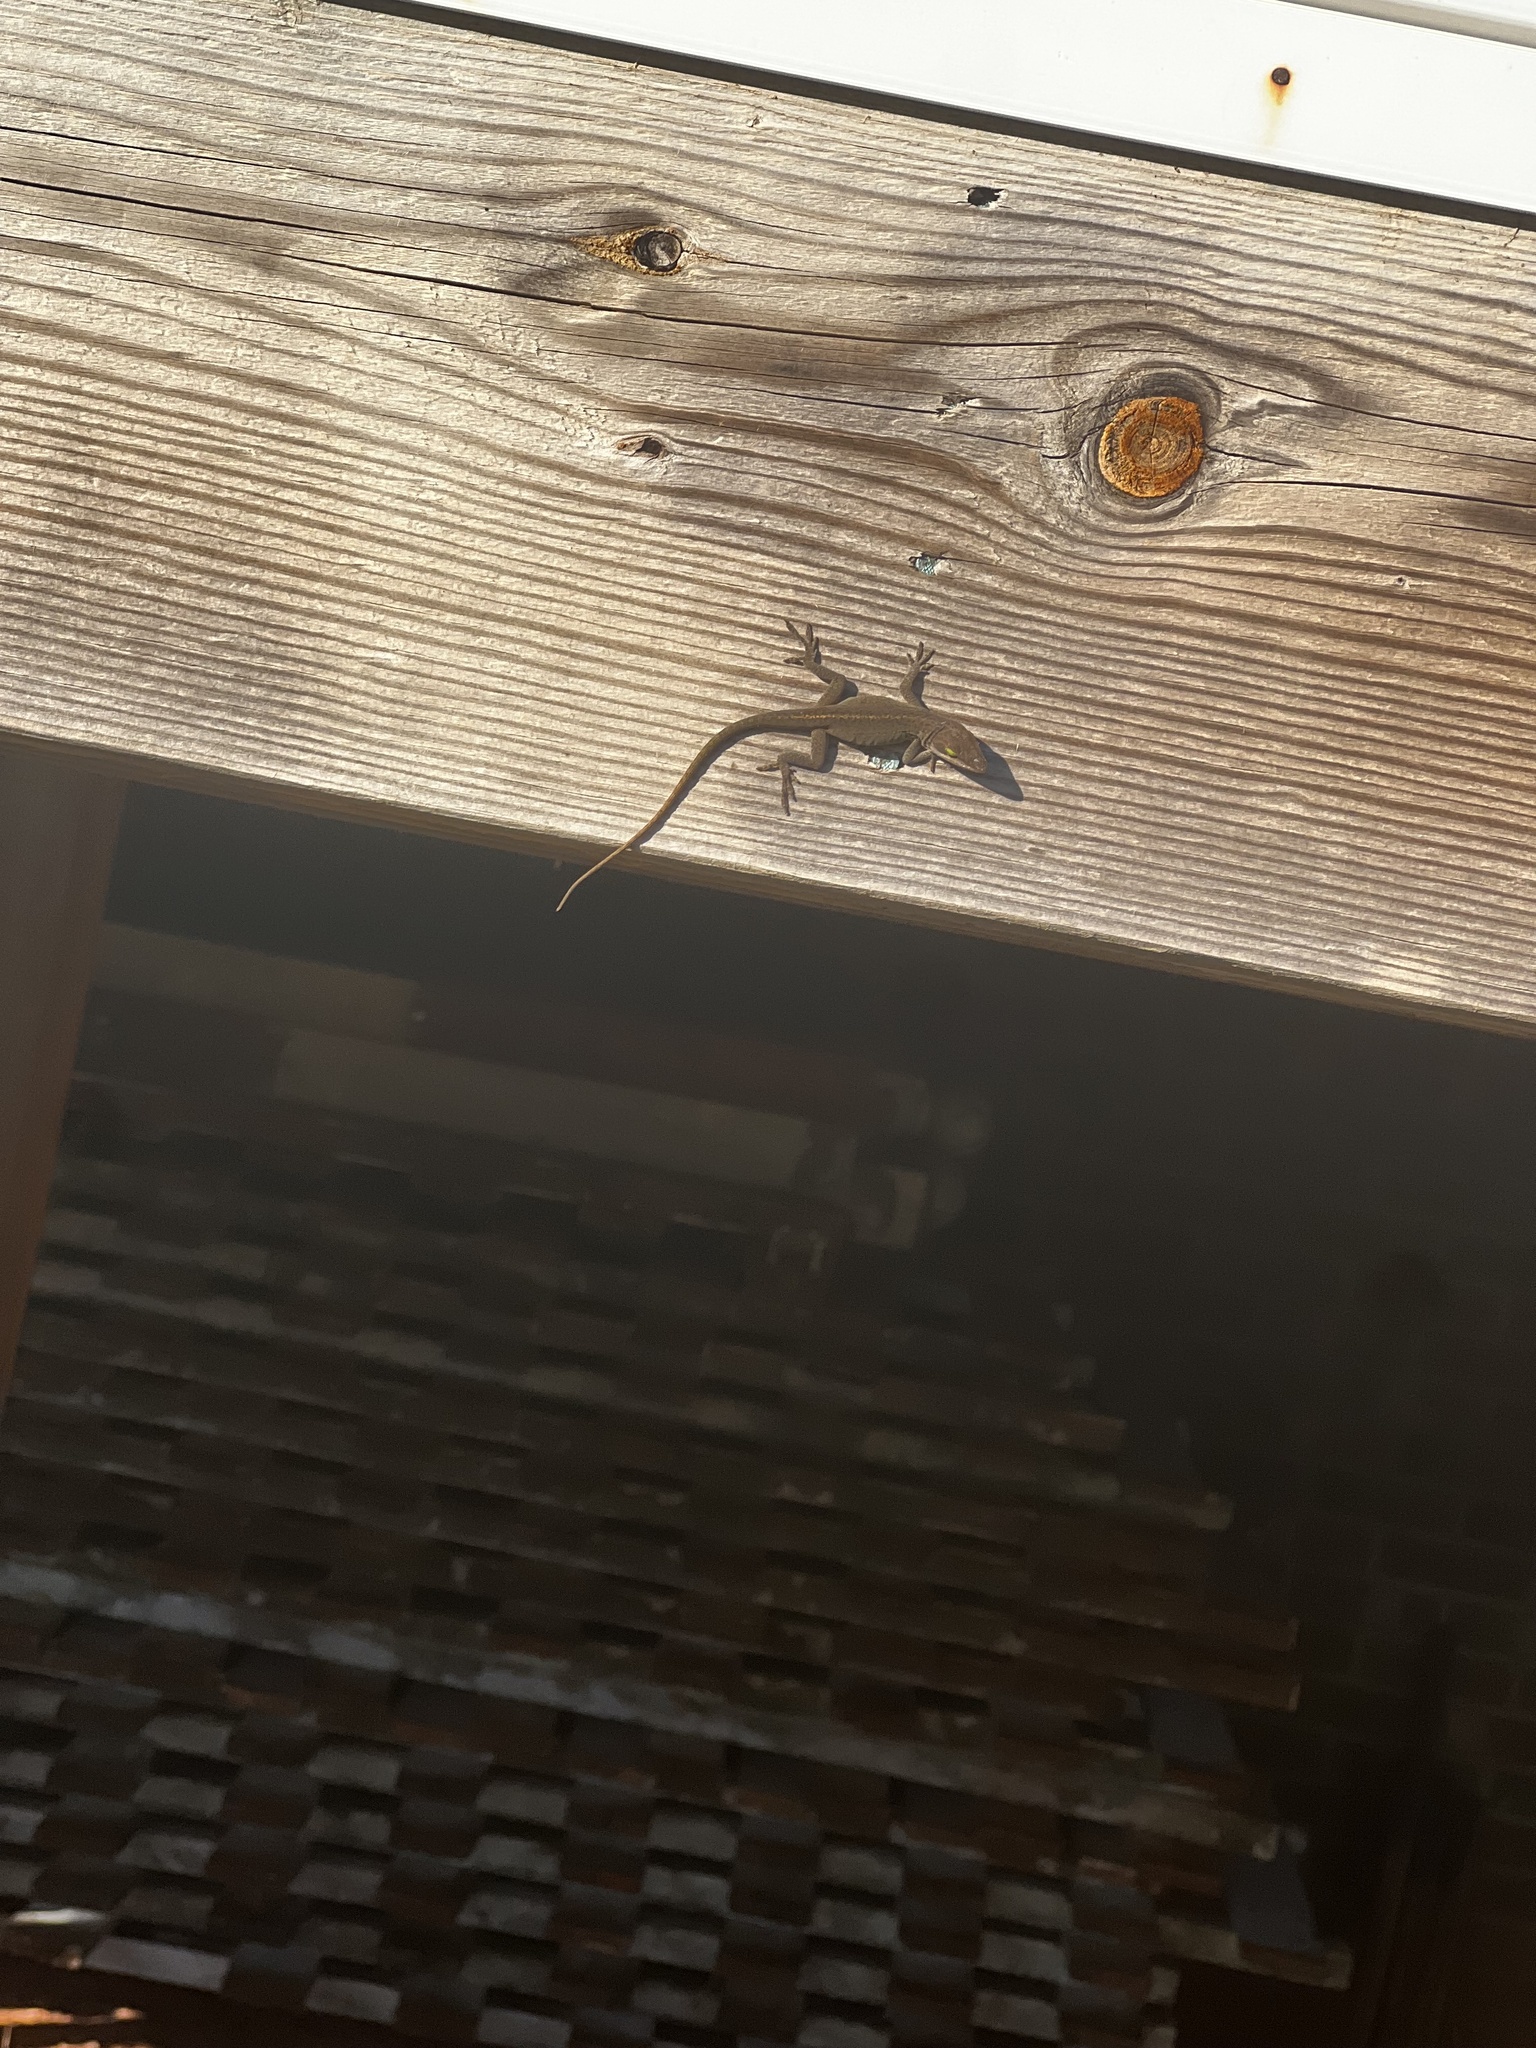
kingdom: Animalia
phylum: Chordata
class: Squamata
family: Dactyloidae
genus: Anolis
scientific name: Anolis carolinensis
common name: Green anole
